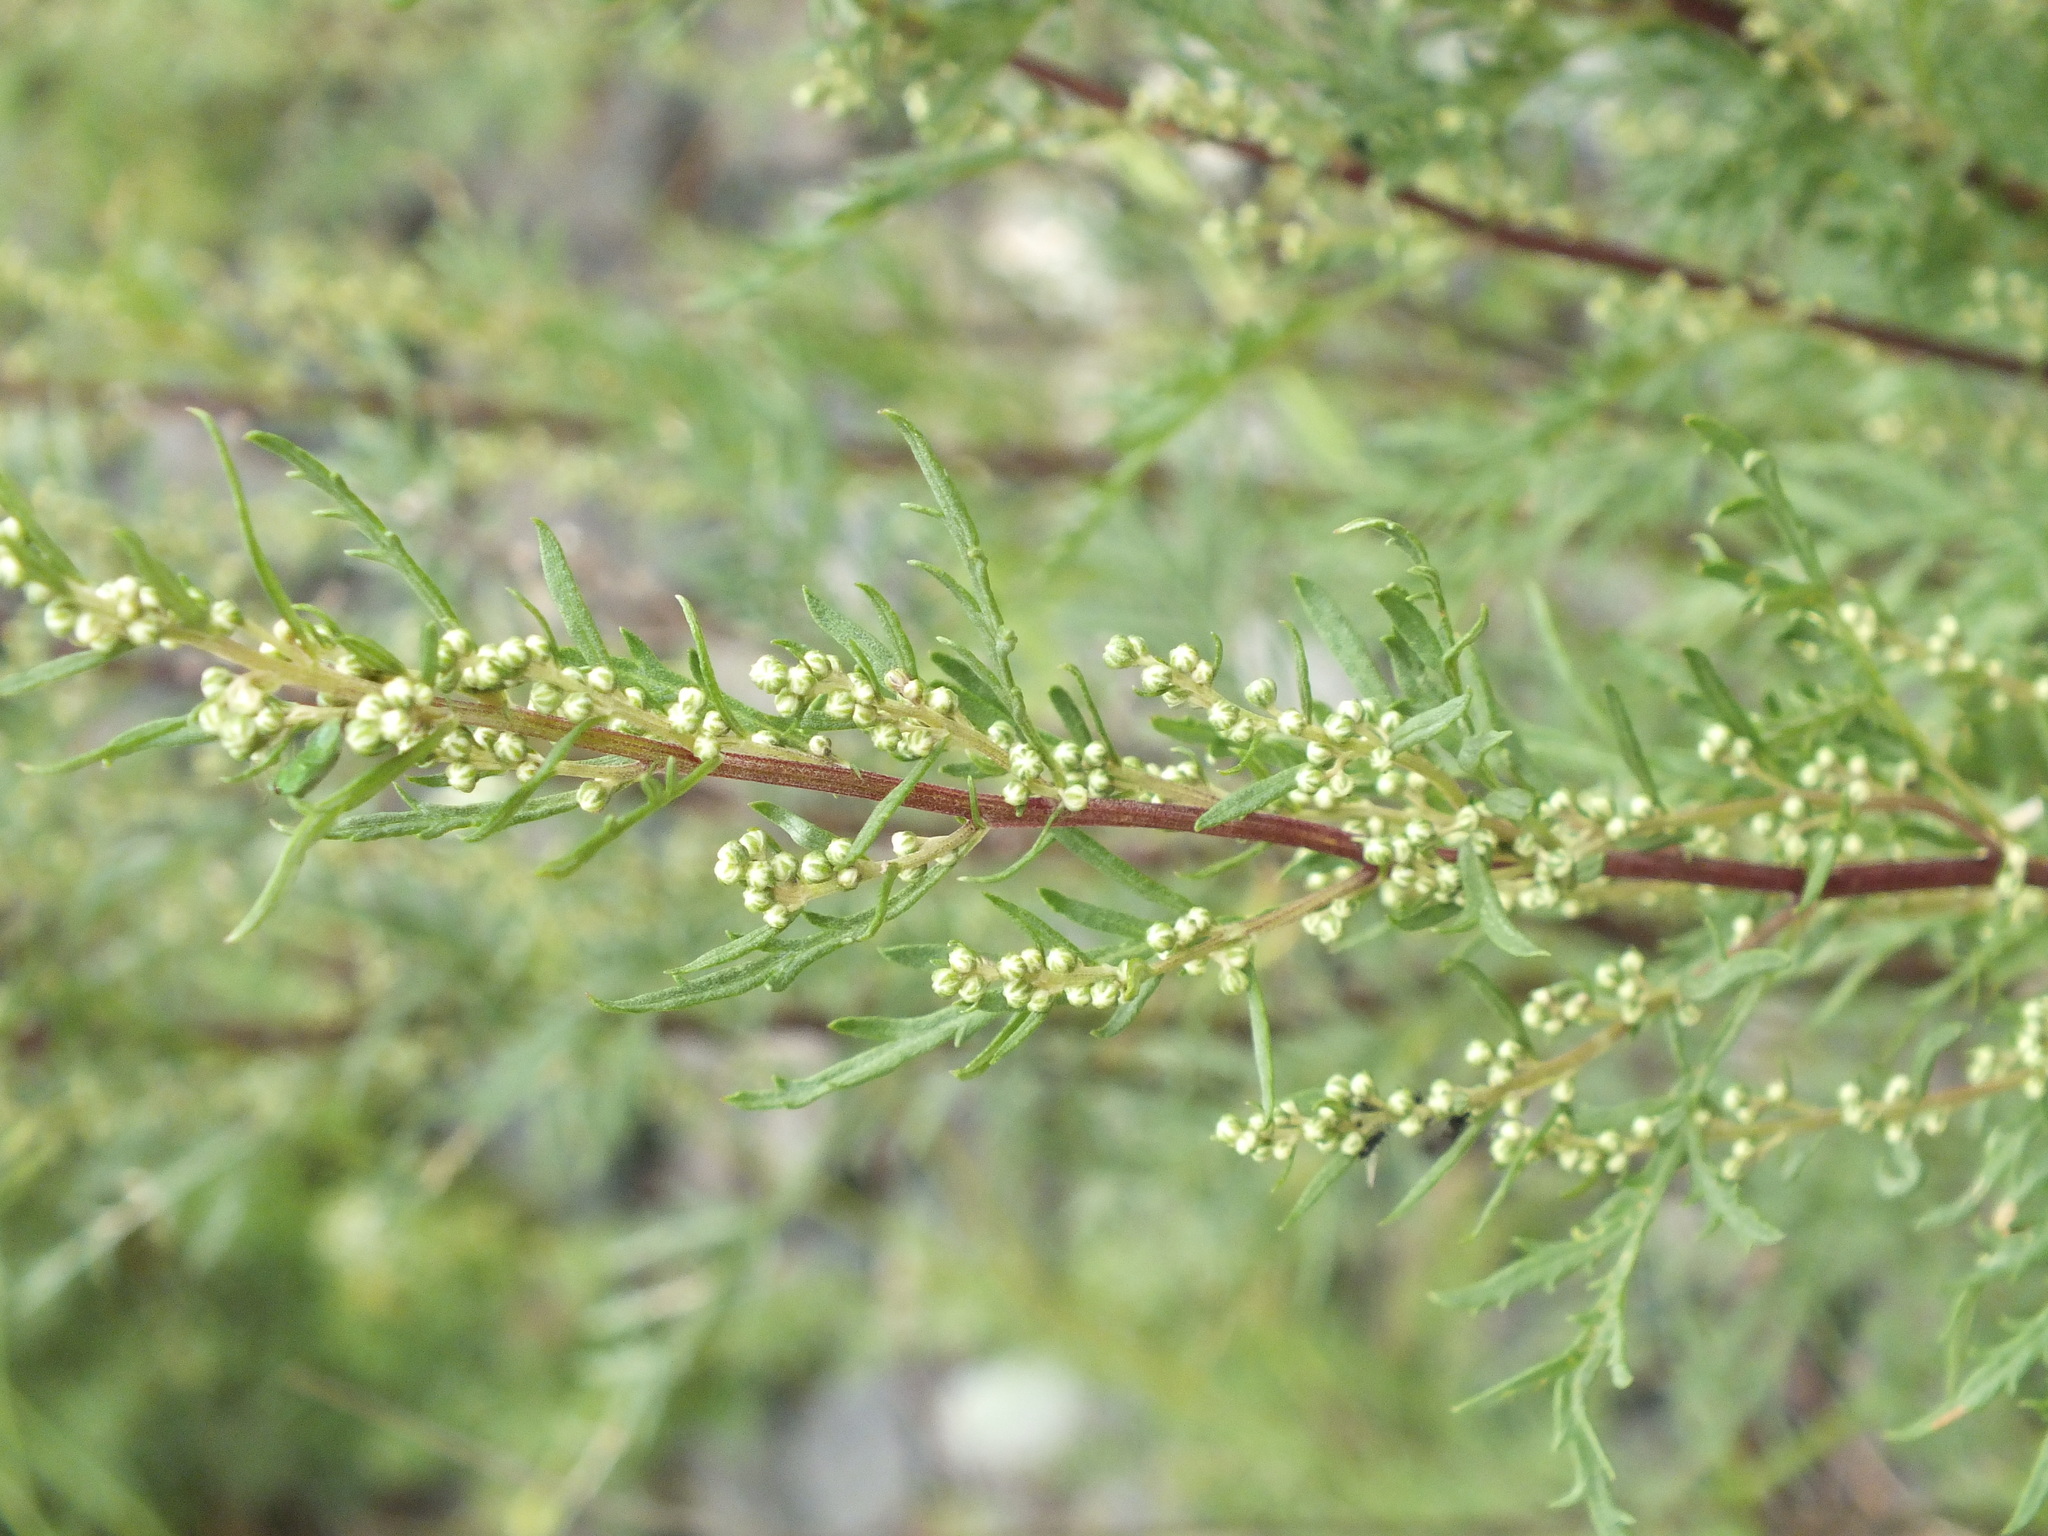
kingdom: Plantae
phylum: Tracheophyta
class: Magnoliopsida
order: Asterales
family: Asteraceae
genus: Artemisia
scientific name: Artemisia gmelinii
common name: Gmelin's wormwood
